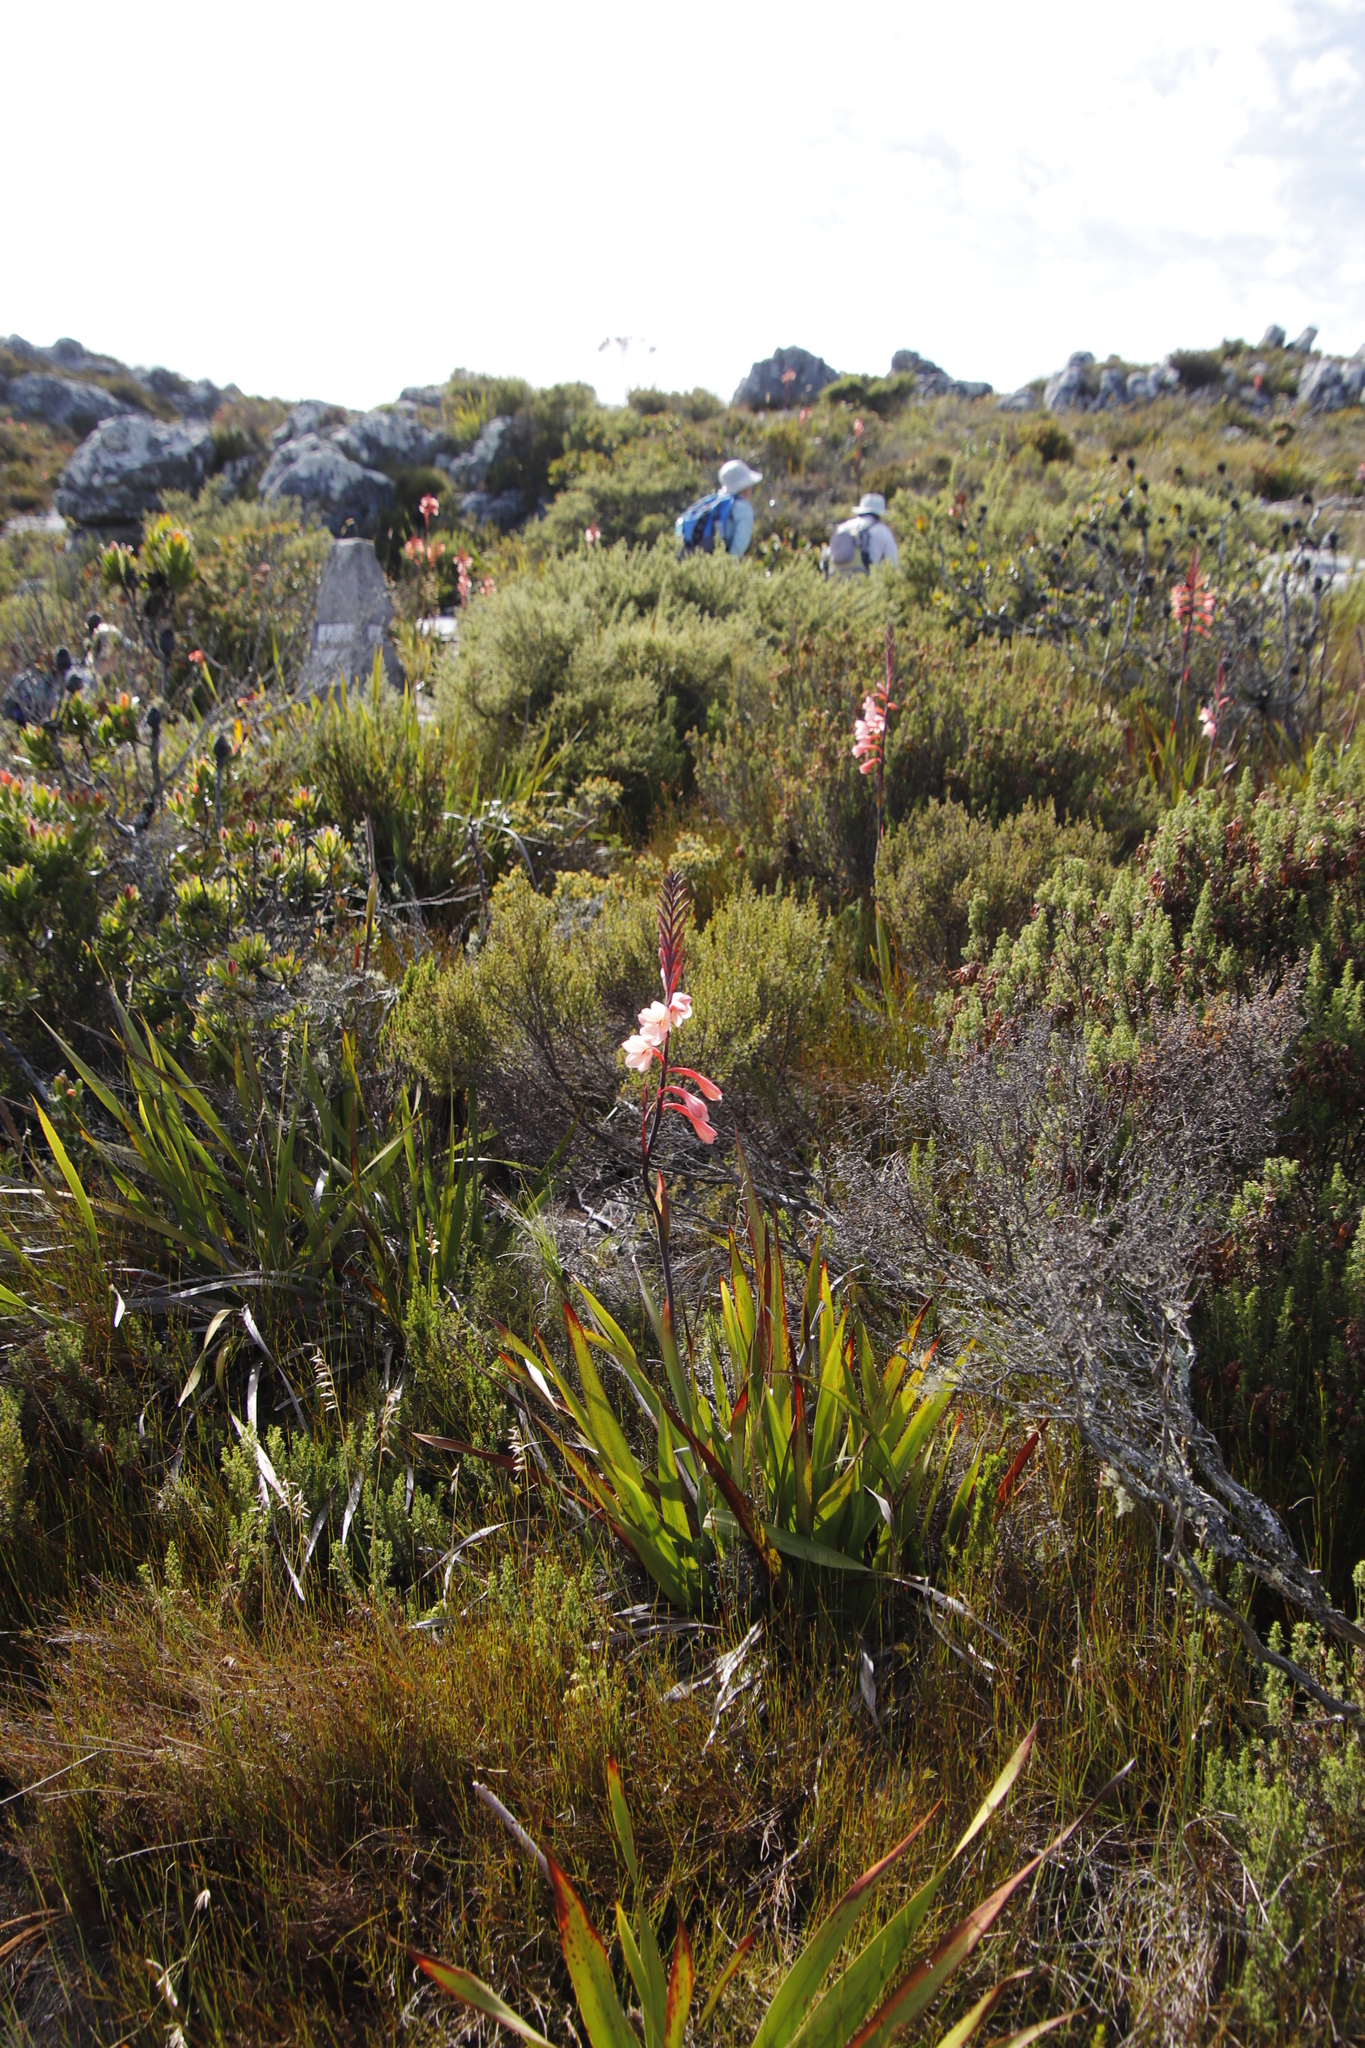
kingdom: Plantae
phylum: Tracheophyta
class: Liliopsida
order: Asparagales
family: Iridaceae
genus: Watsonia
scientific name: Watsonia tabularis
